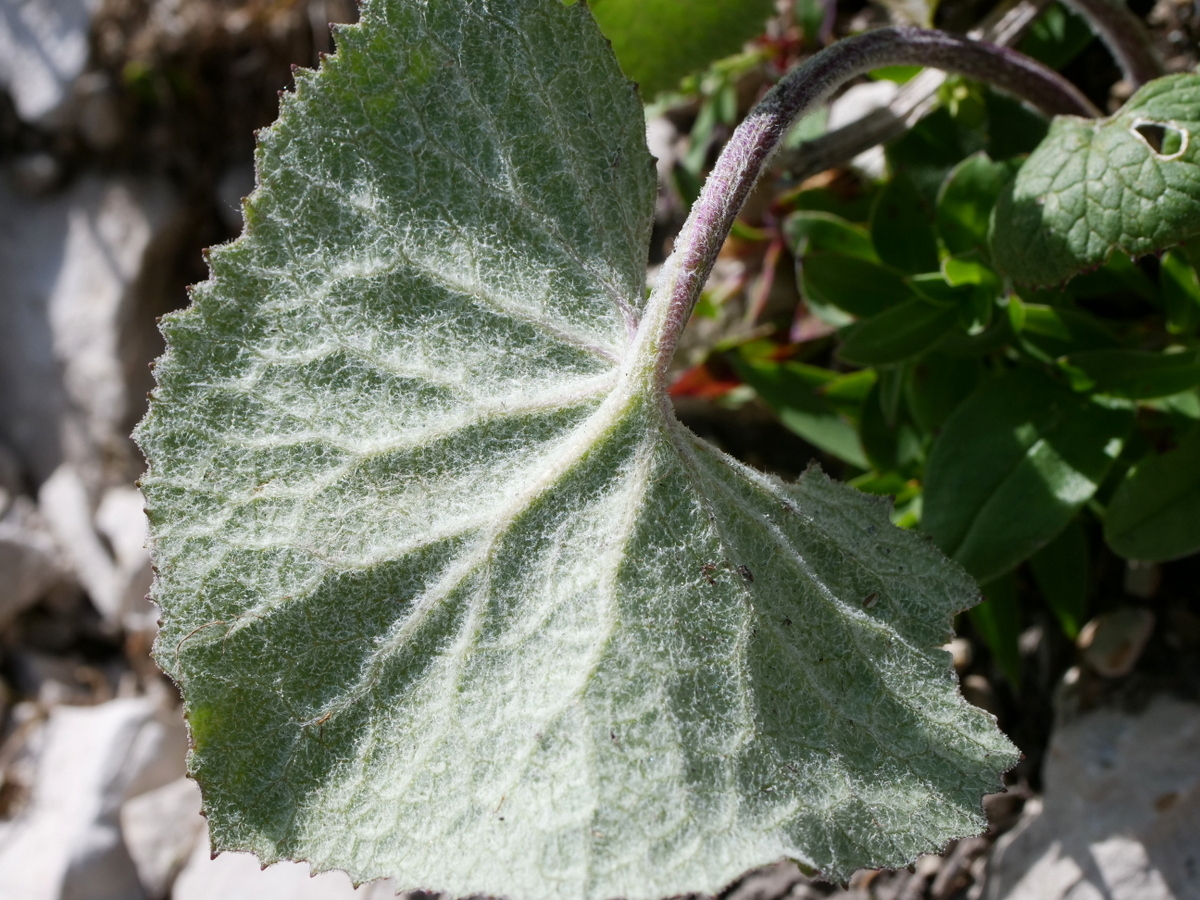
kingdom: Plantae
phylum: Tracheophyta
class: Magnoliopsida
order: Asterales
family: Asteraceae
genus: Adenostyles
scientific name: Adenostyles alpina
